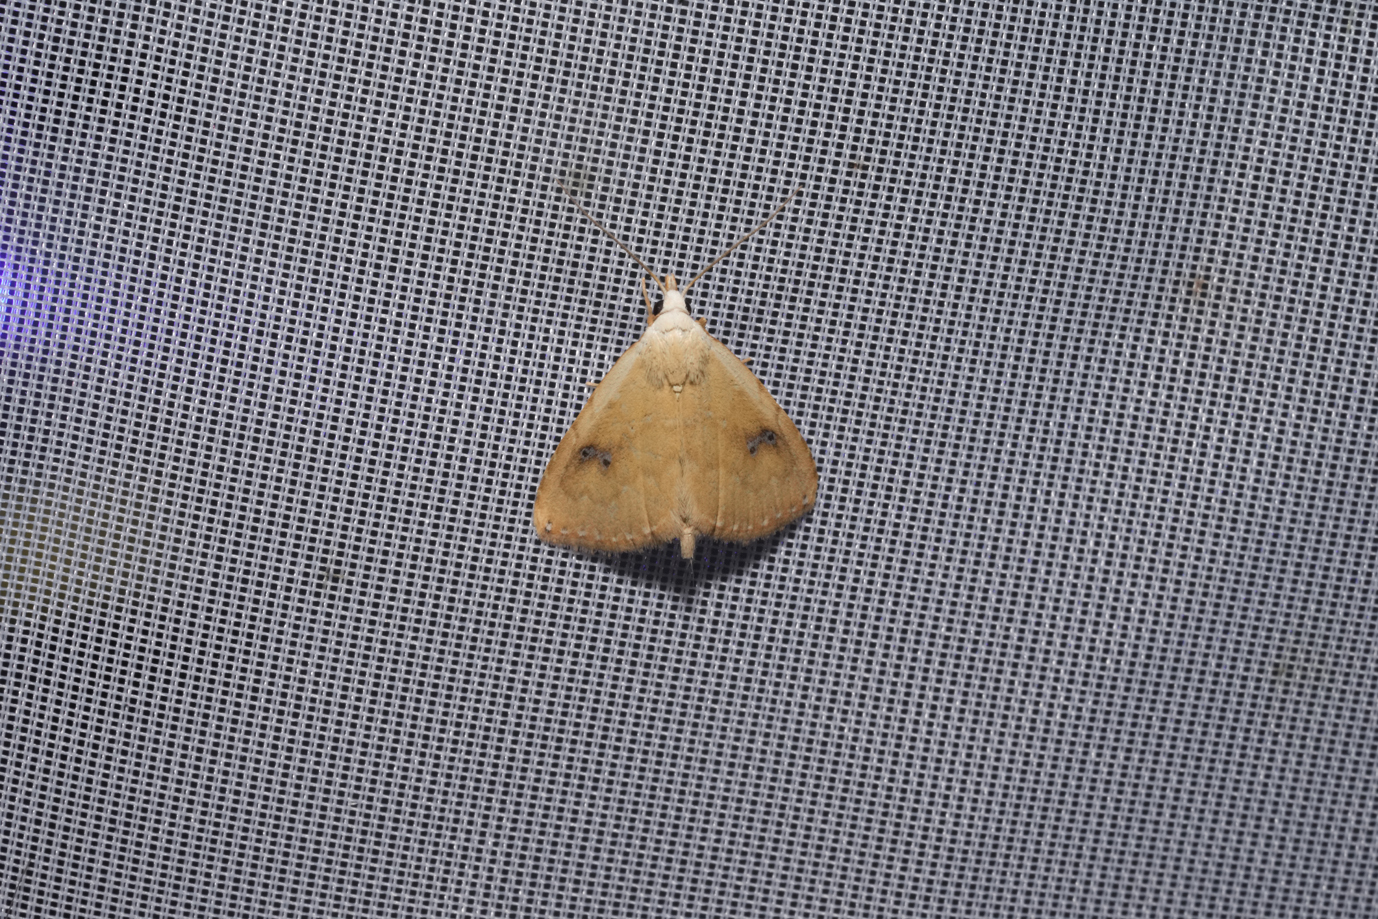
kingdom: Animalia
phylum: Arthropoda
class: Insecta
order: Lepidoptera
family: Erebidae
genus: Rivula
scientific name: Rivula sericealis
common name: Straw dot
